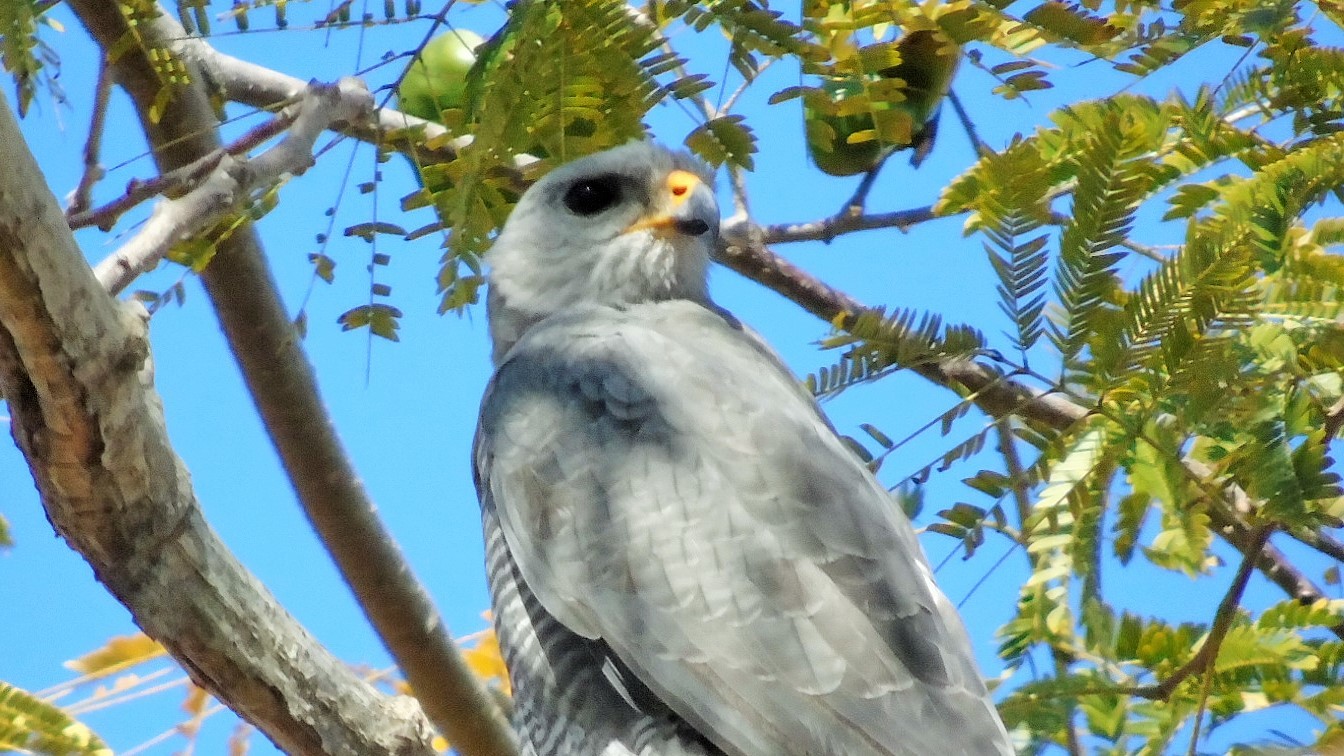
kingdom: Animalia
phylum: Chordata
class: Aves
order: Accipitriformes
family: Accipitridae
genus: Buteo
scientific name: Buteo nitidus
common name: Grey-lined hawk
